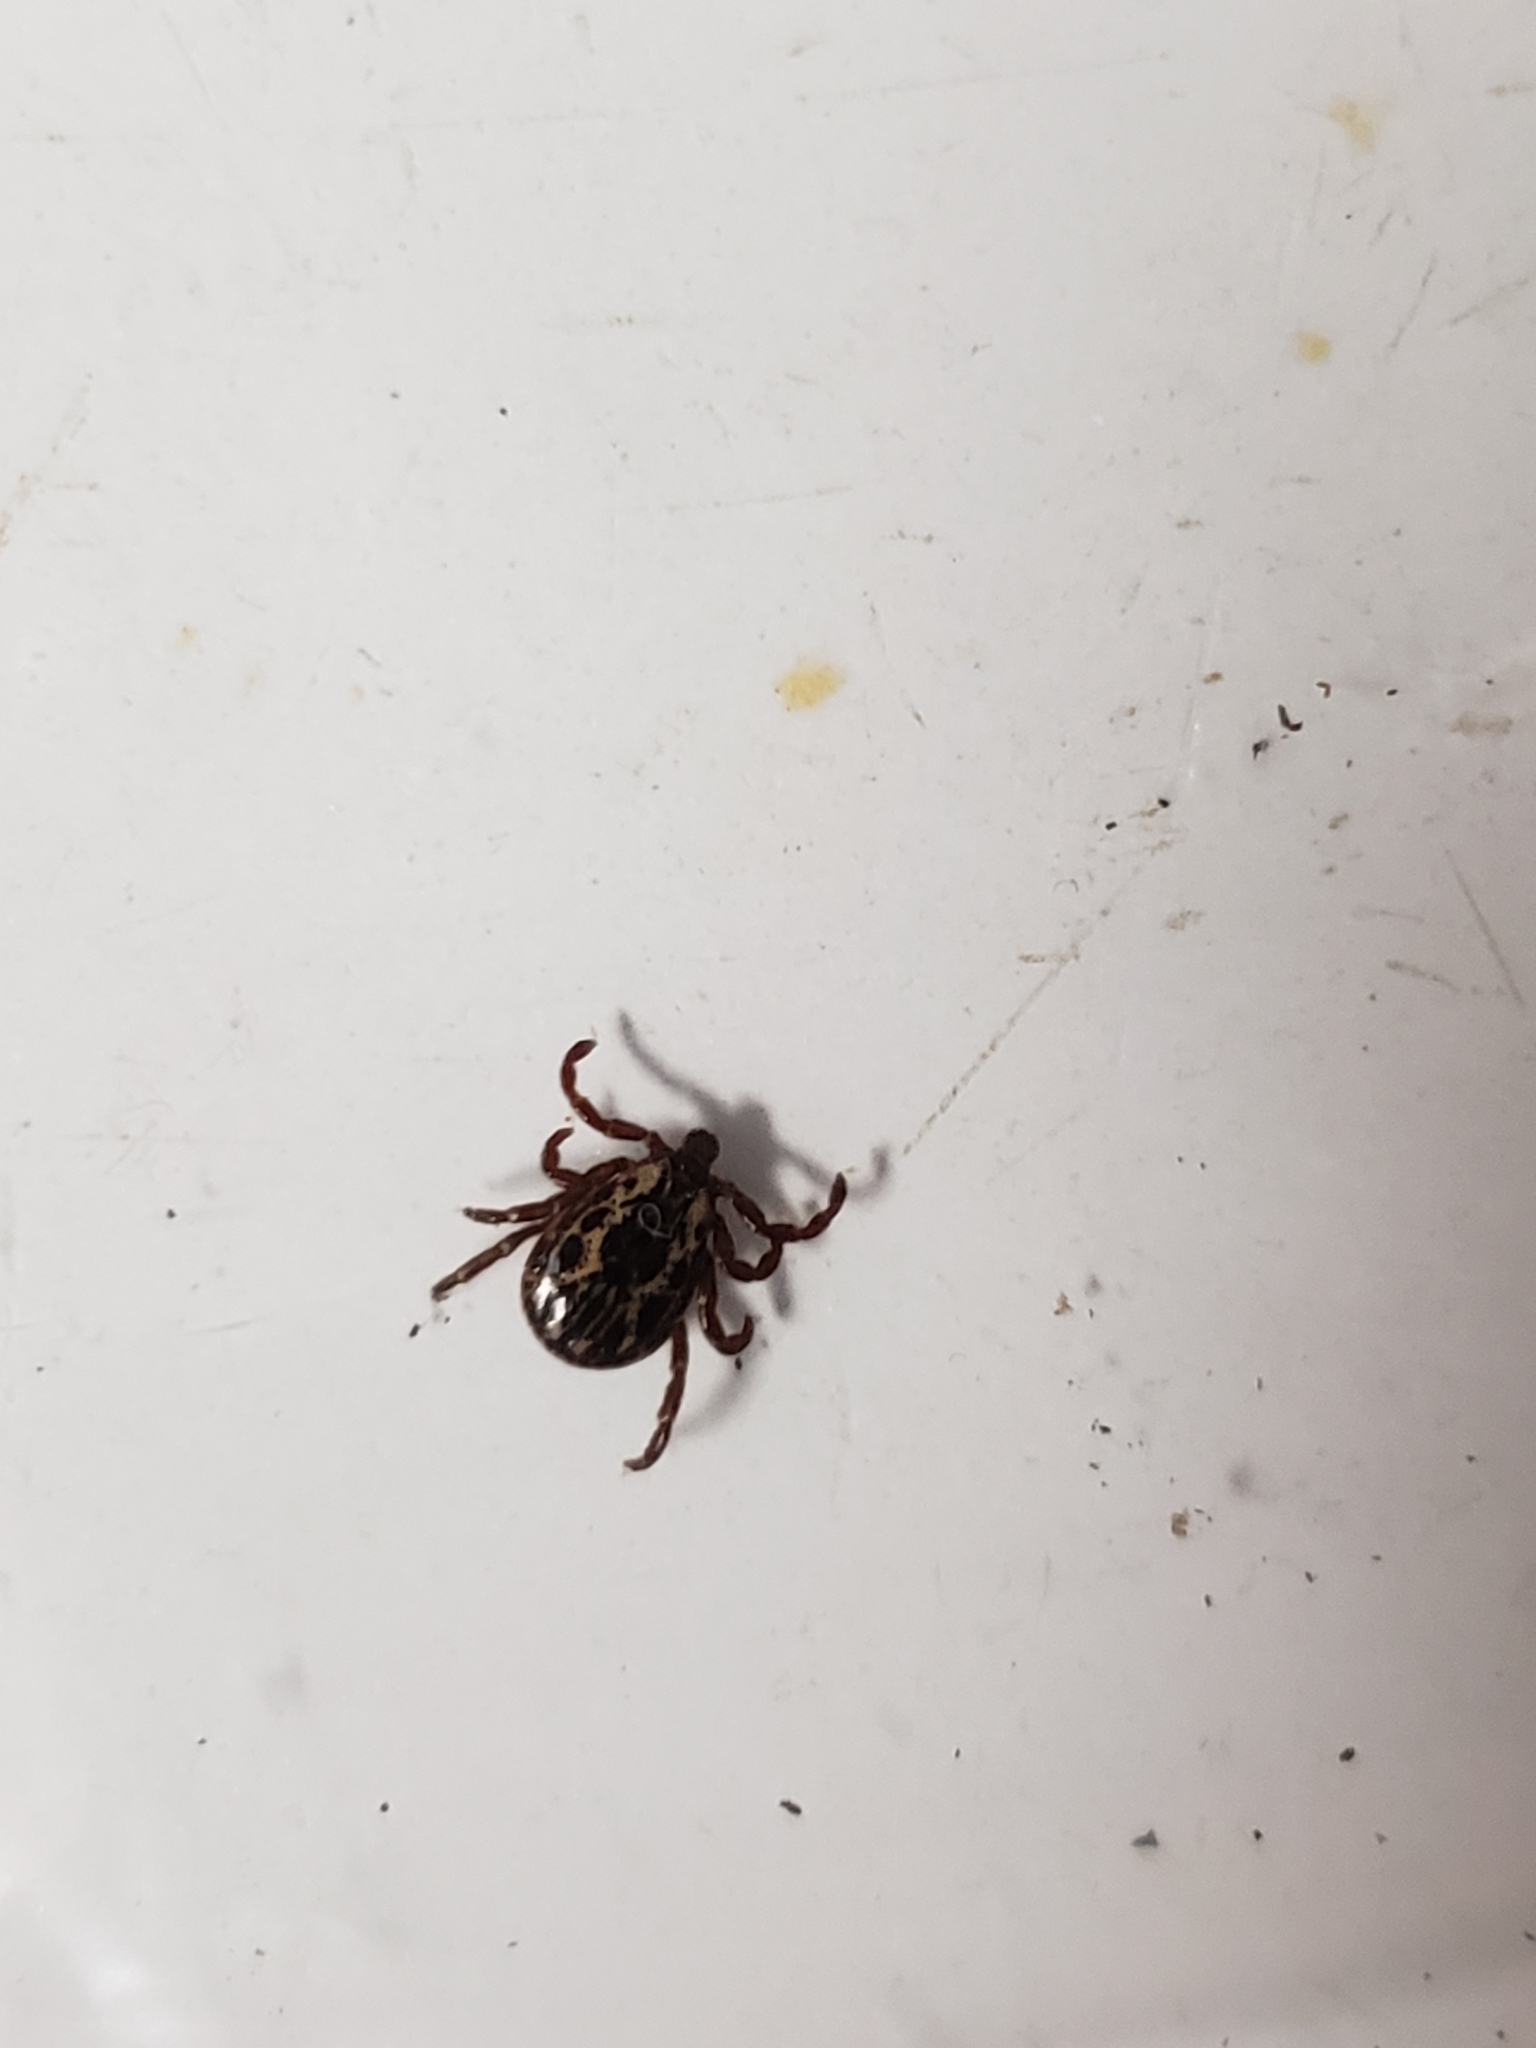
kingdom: Animalia
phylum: Arthropoda
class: Arachnida
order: Ixodida
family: Ixodidae
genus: Dermacentor
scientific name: Dermacentor variabilis
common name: American dog tick
